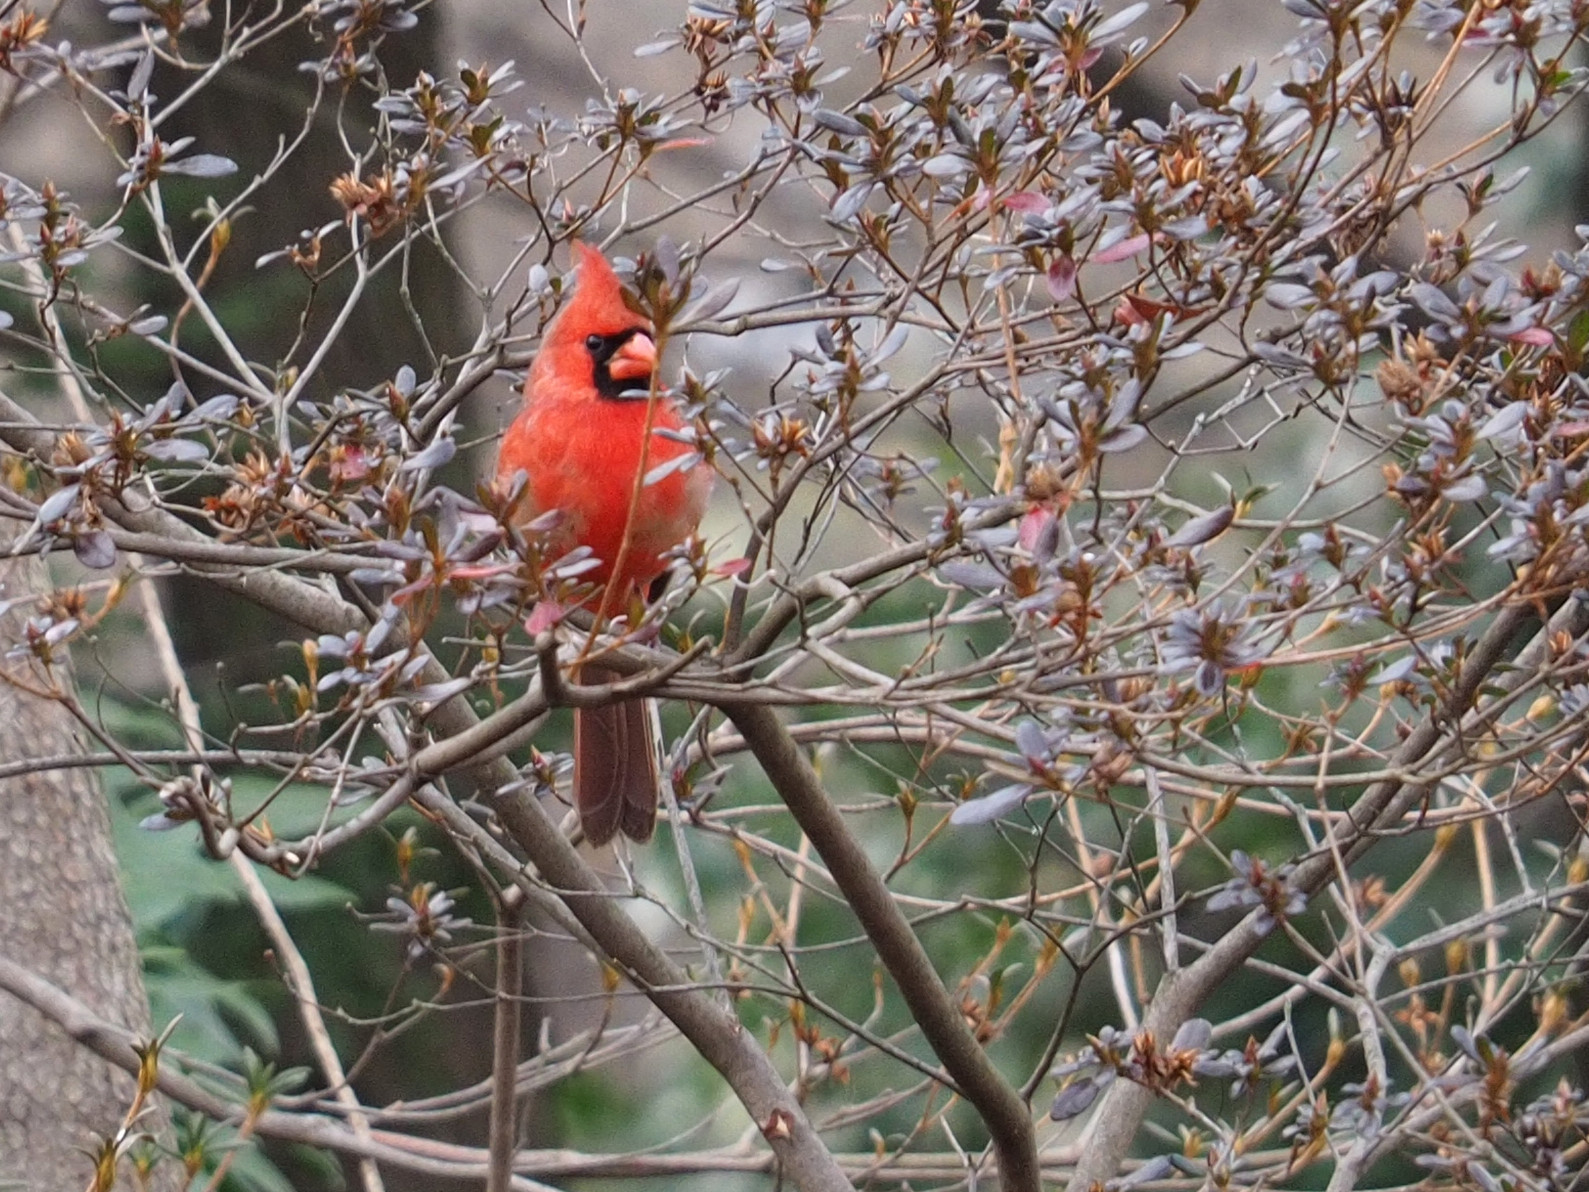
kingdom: Animalia
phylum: Chordata
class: Aves
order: Passeriformes
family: Cardinalidae
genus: Cardinalis
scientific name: Cardinalis cardinalis
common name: Northern cardinal
